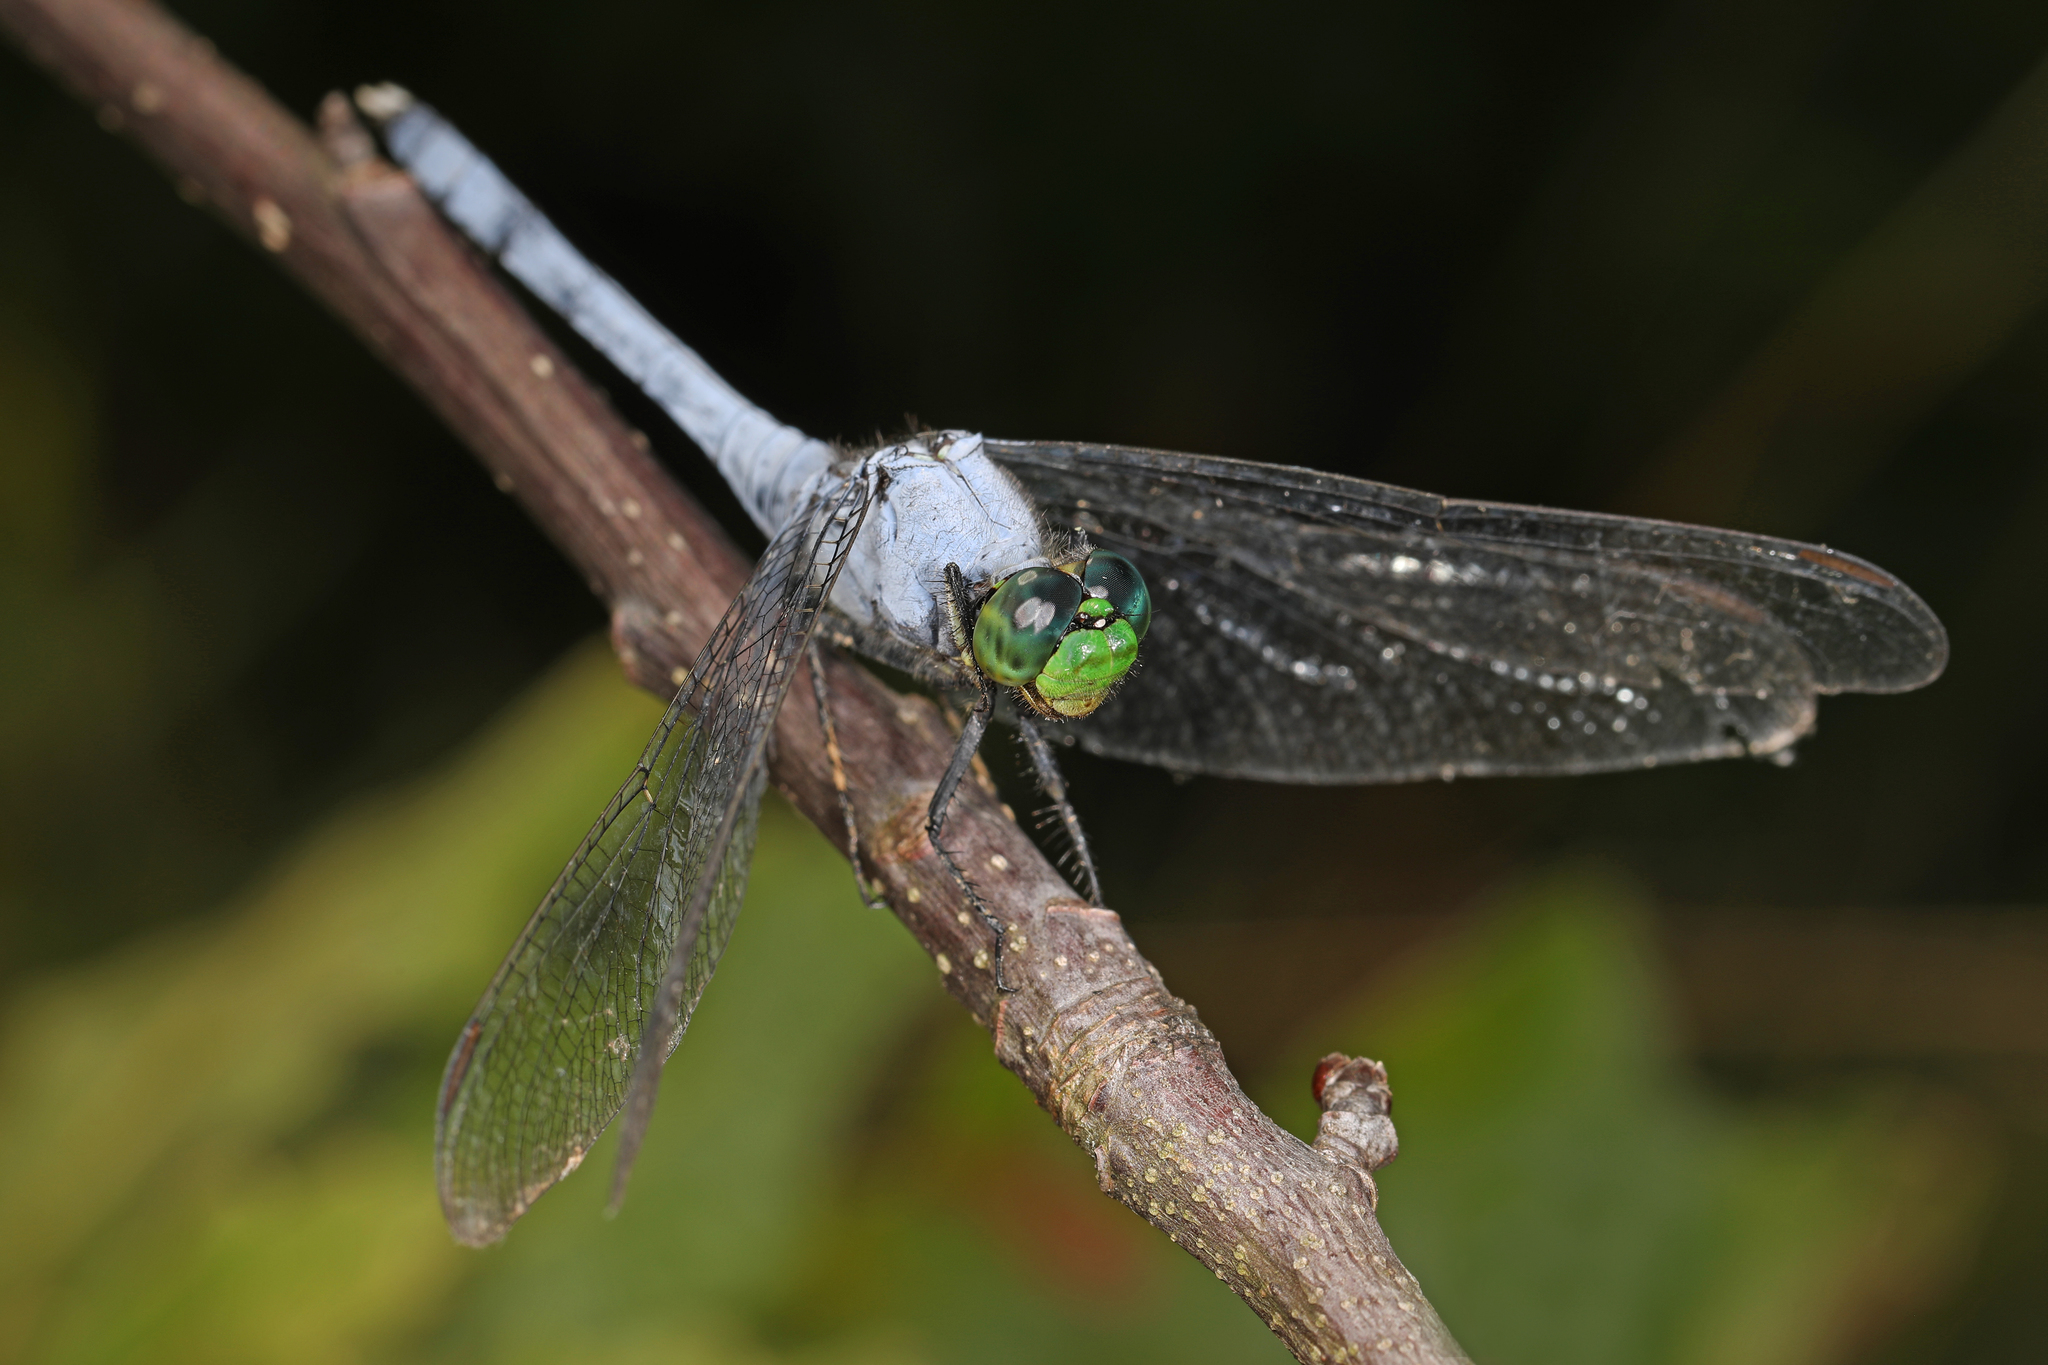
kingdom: Animalia
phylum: Arthropoda
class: Insecta
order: Odonata
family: Libellulidae
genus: Erythemis
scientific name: Erythemis simplicicollis
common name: Eastern pondhawk
